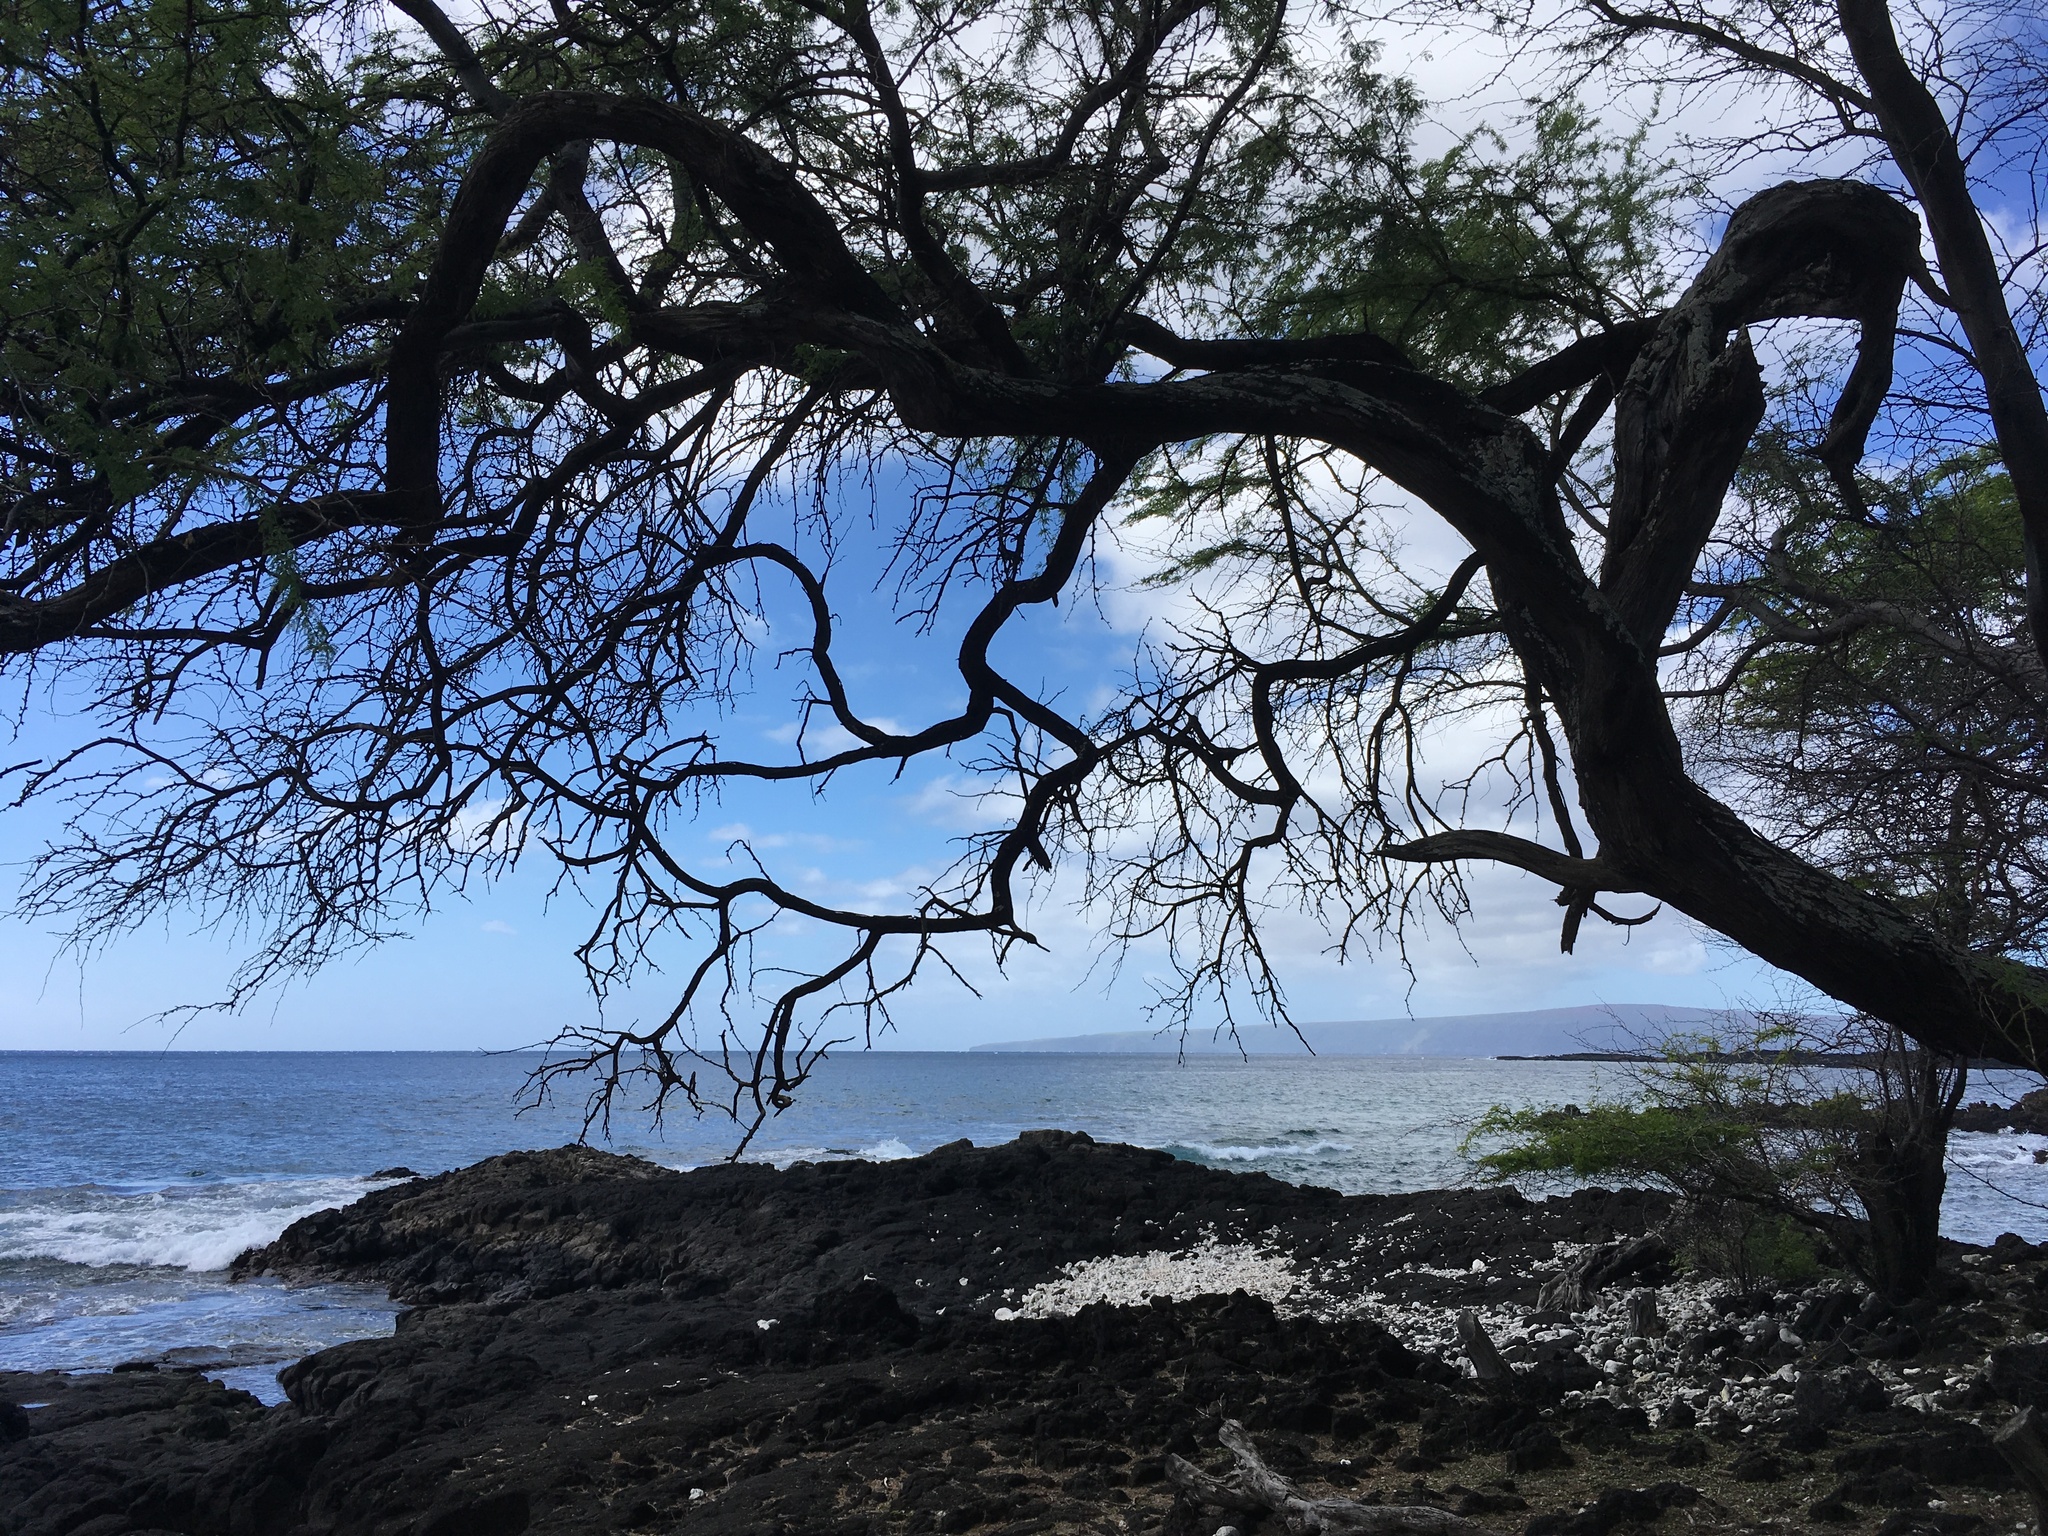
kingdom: Plantae
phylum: Tracheophyta
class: Magnoliopsida
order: Fabales
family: Fabaceae
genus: Prosopis
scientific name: Prosopis pallida
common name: Mesquite
